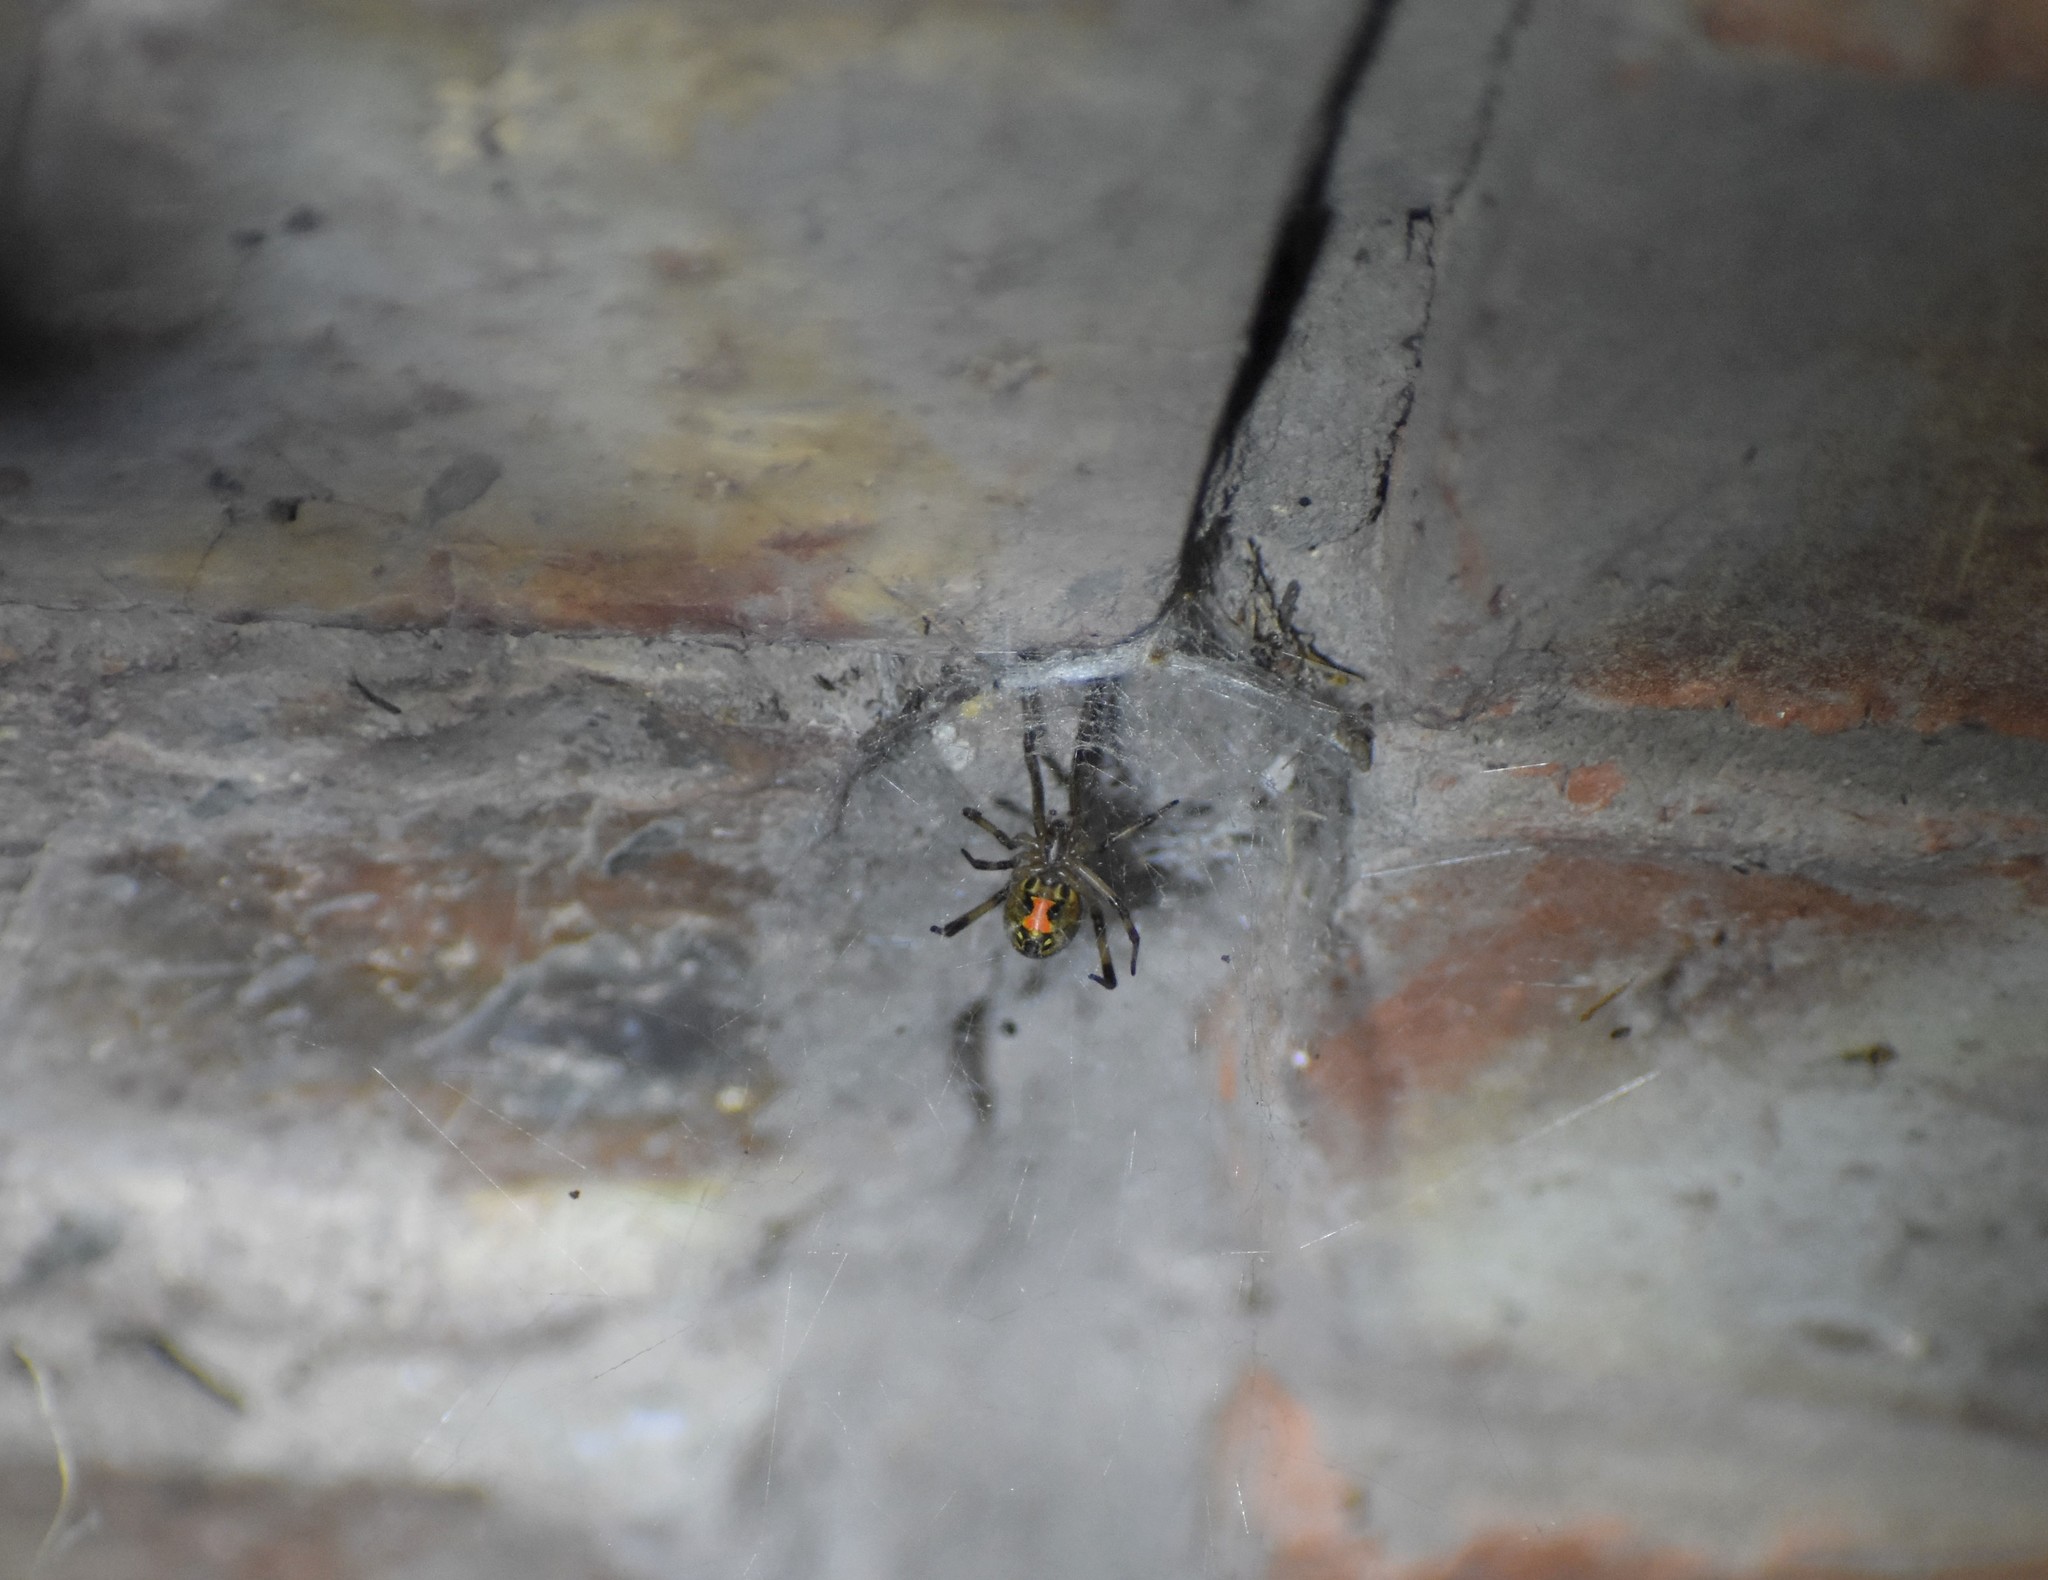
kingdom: Animalia
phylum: Arthropoda
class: Arachnida
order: Araneae
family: Theridiidae
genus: Latrodectus
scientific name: Latrodectus geometricus
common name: Brown widow spider
